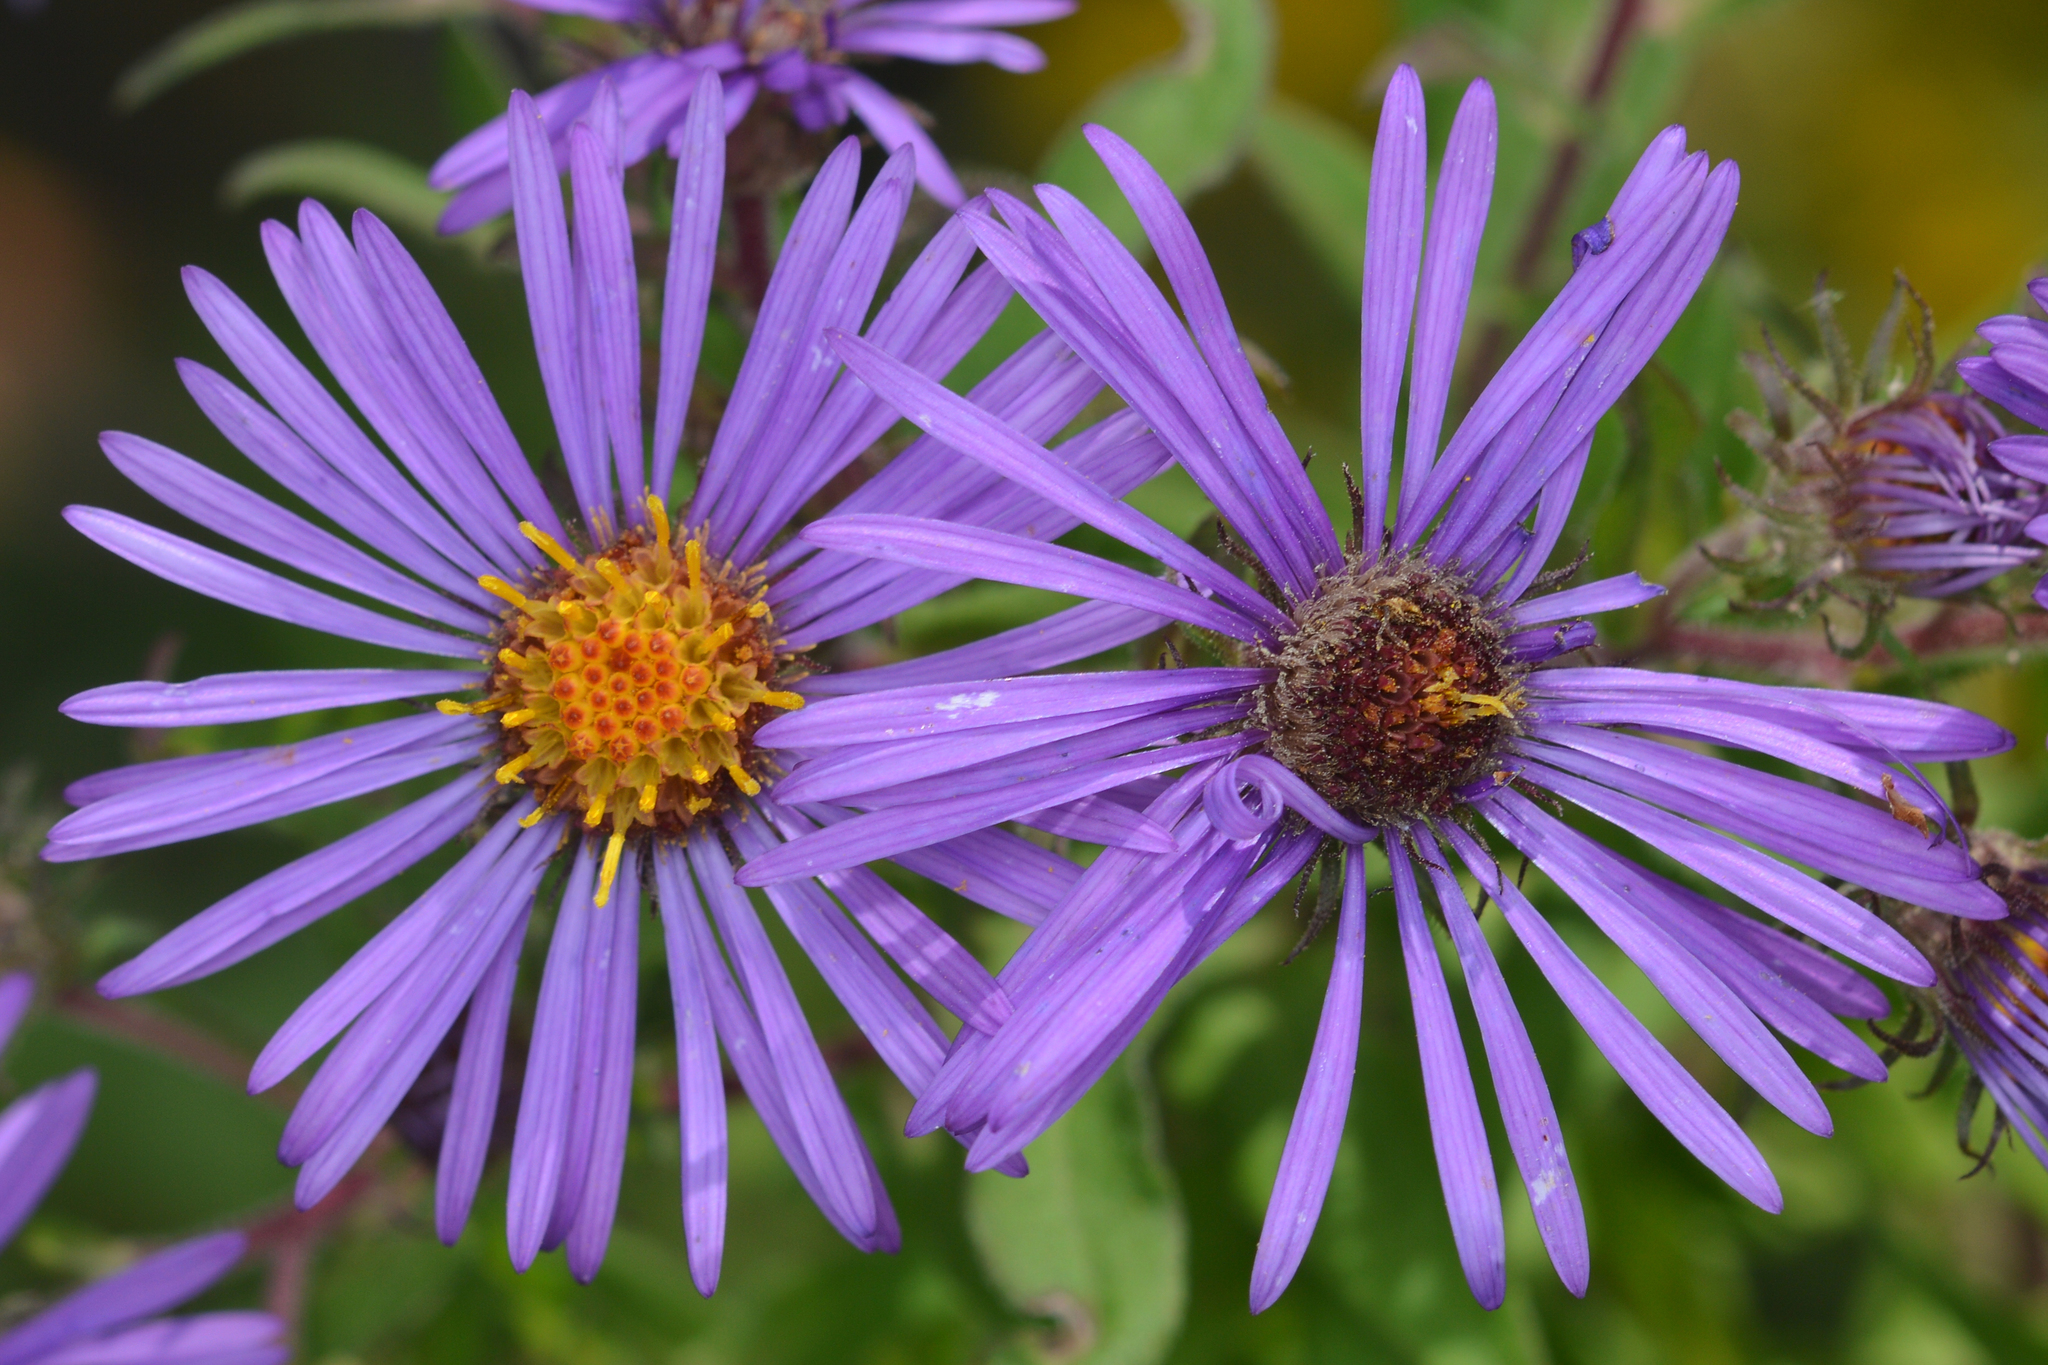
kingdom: Plantae
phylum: Tracheophyta
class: Magnoliopsida
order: Asterales
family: Asteraceae
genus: Symphyotrichum
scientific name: Symphyotrichum novae-angliae
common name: Michaelmas daisy
